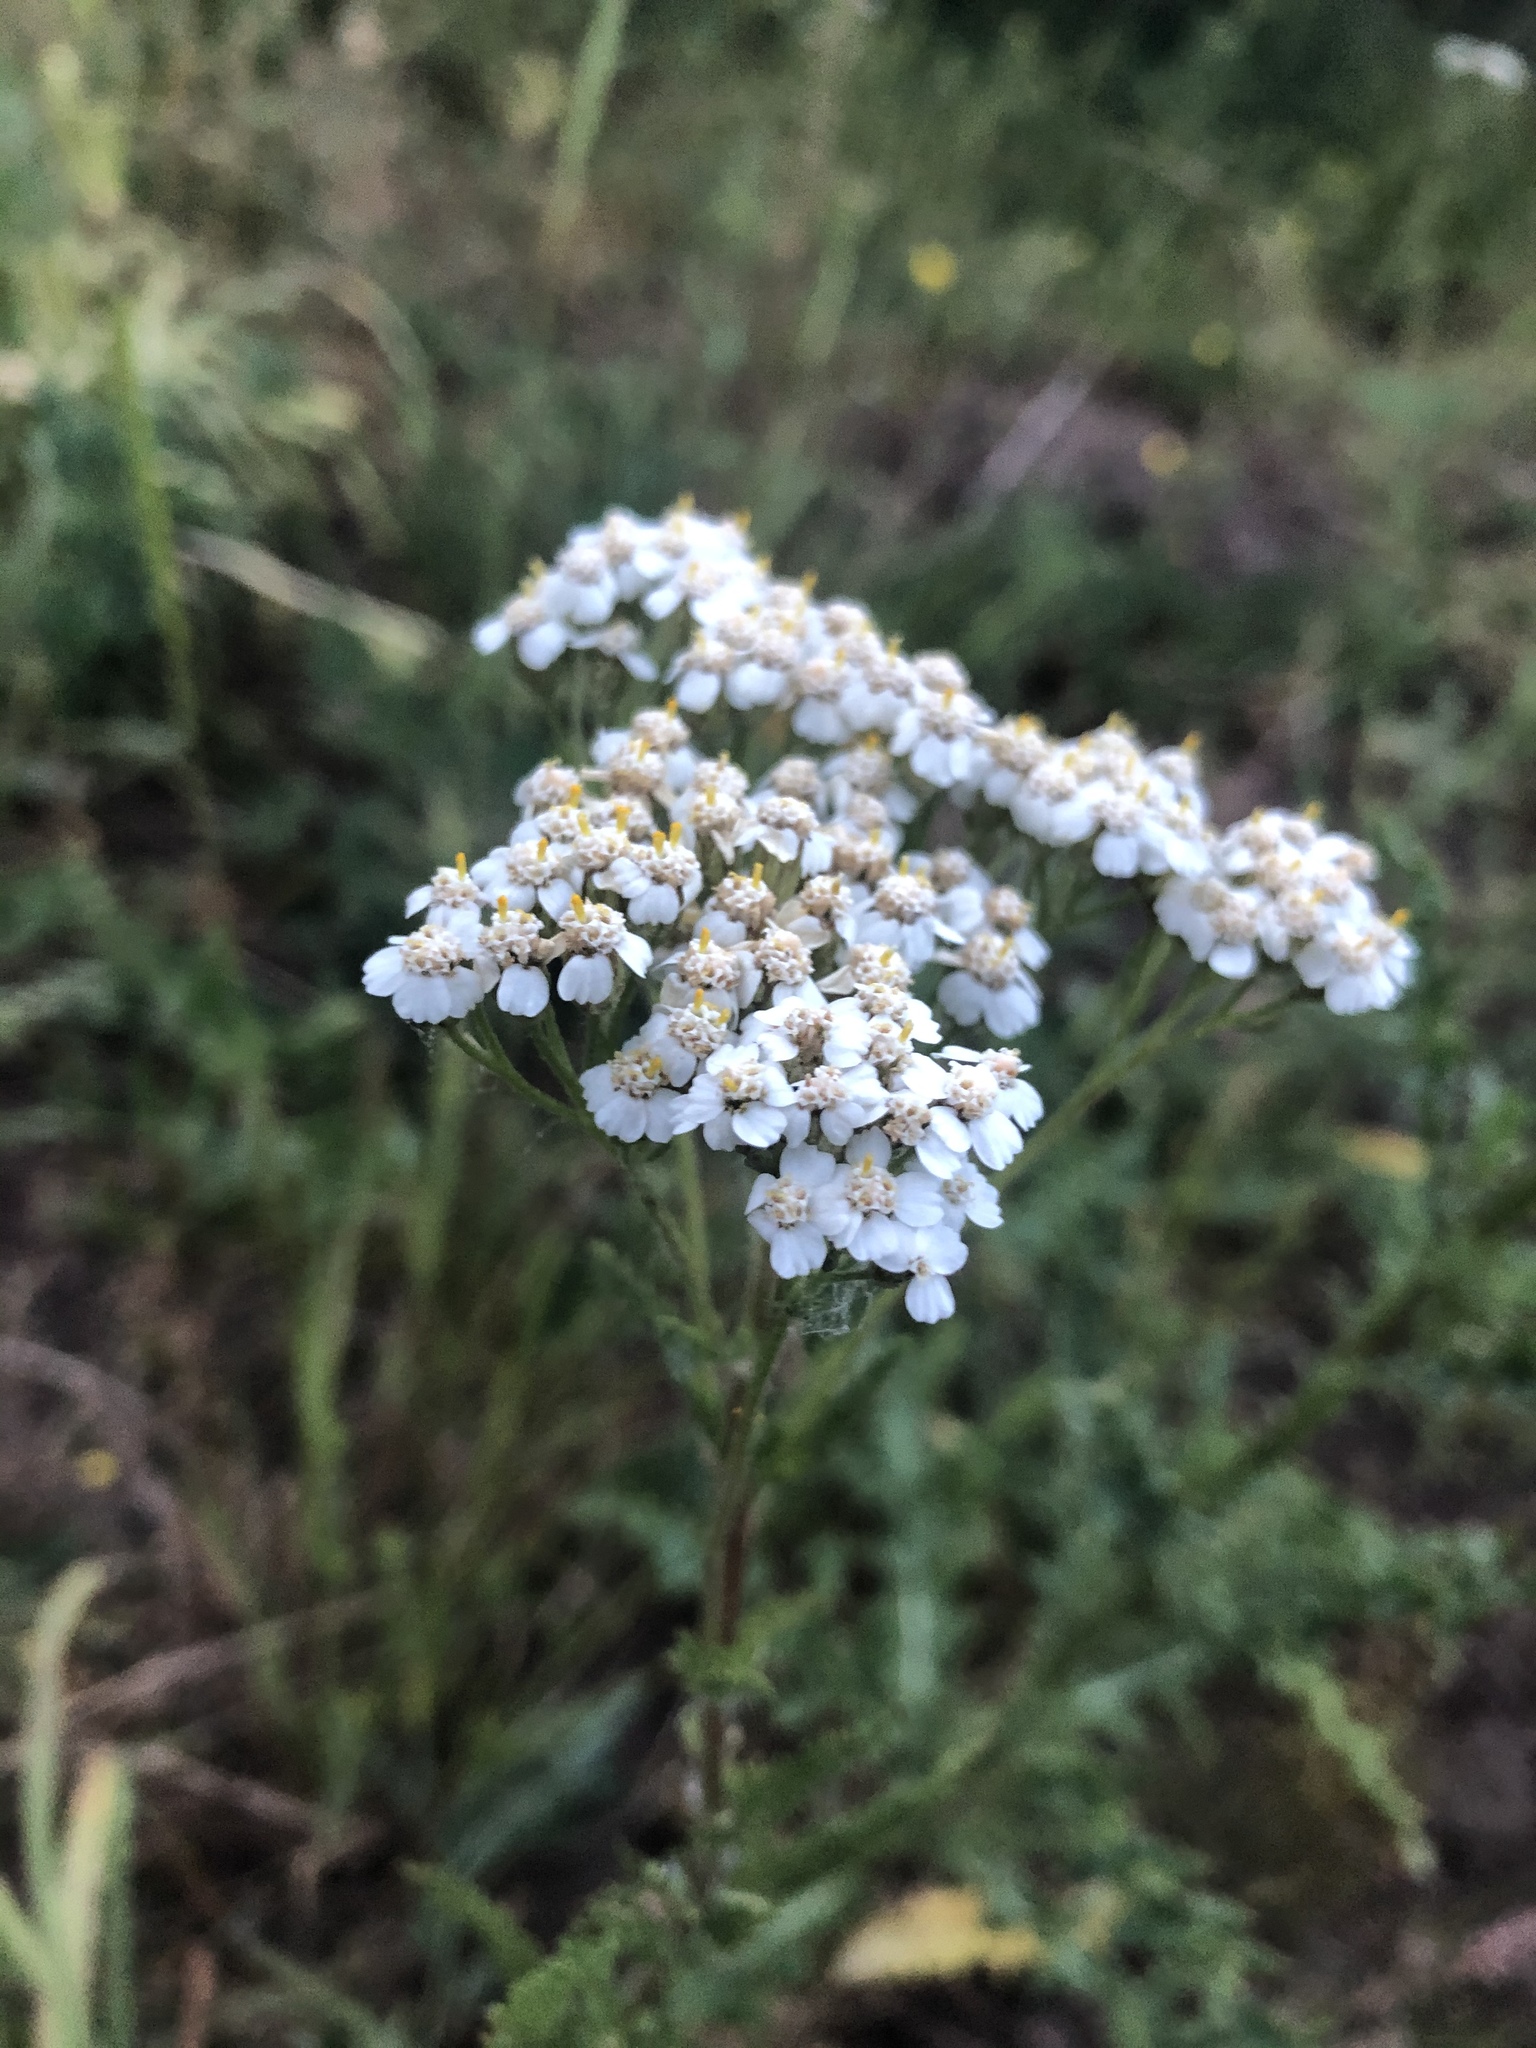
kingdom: Plantae
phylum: Tracheophyta
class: Magnoliopsida
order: Asterales
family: Asteraceae
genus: Achillea
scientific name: Achillea millefolium
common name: Yarrow
